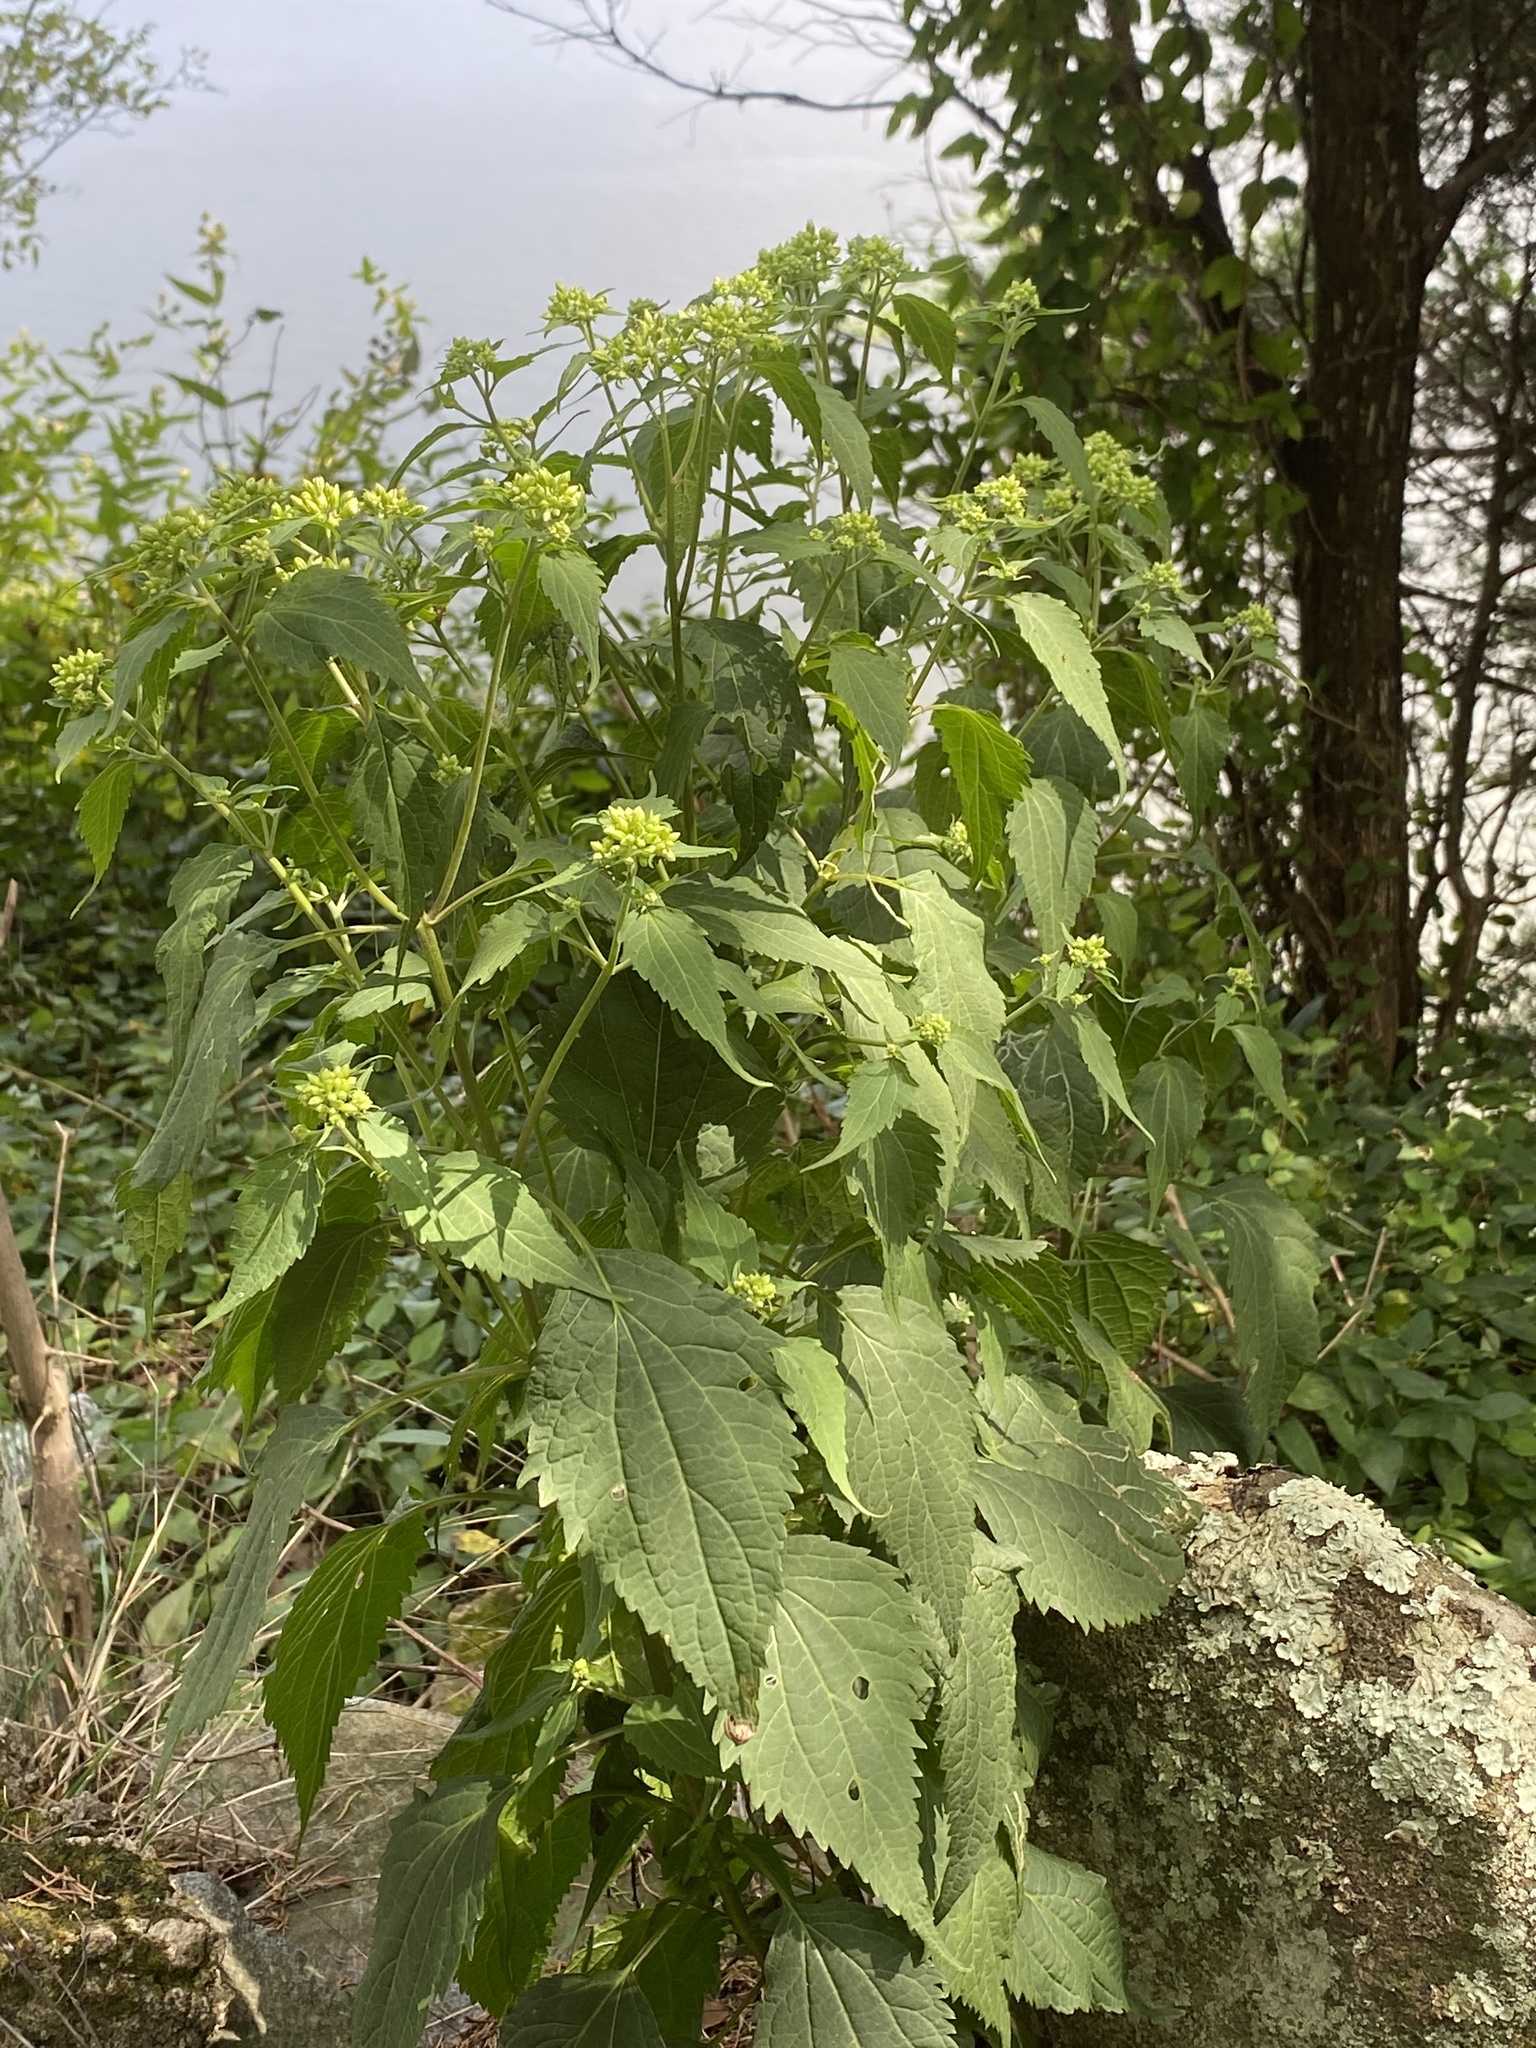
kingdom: Plantae
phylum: Tracheophyta
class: Magnoliopsida
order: Asterales
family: Asteraceae
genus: Ageratina
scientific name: Ageratina altissima
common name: White snakeroot
